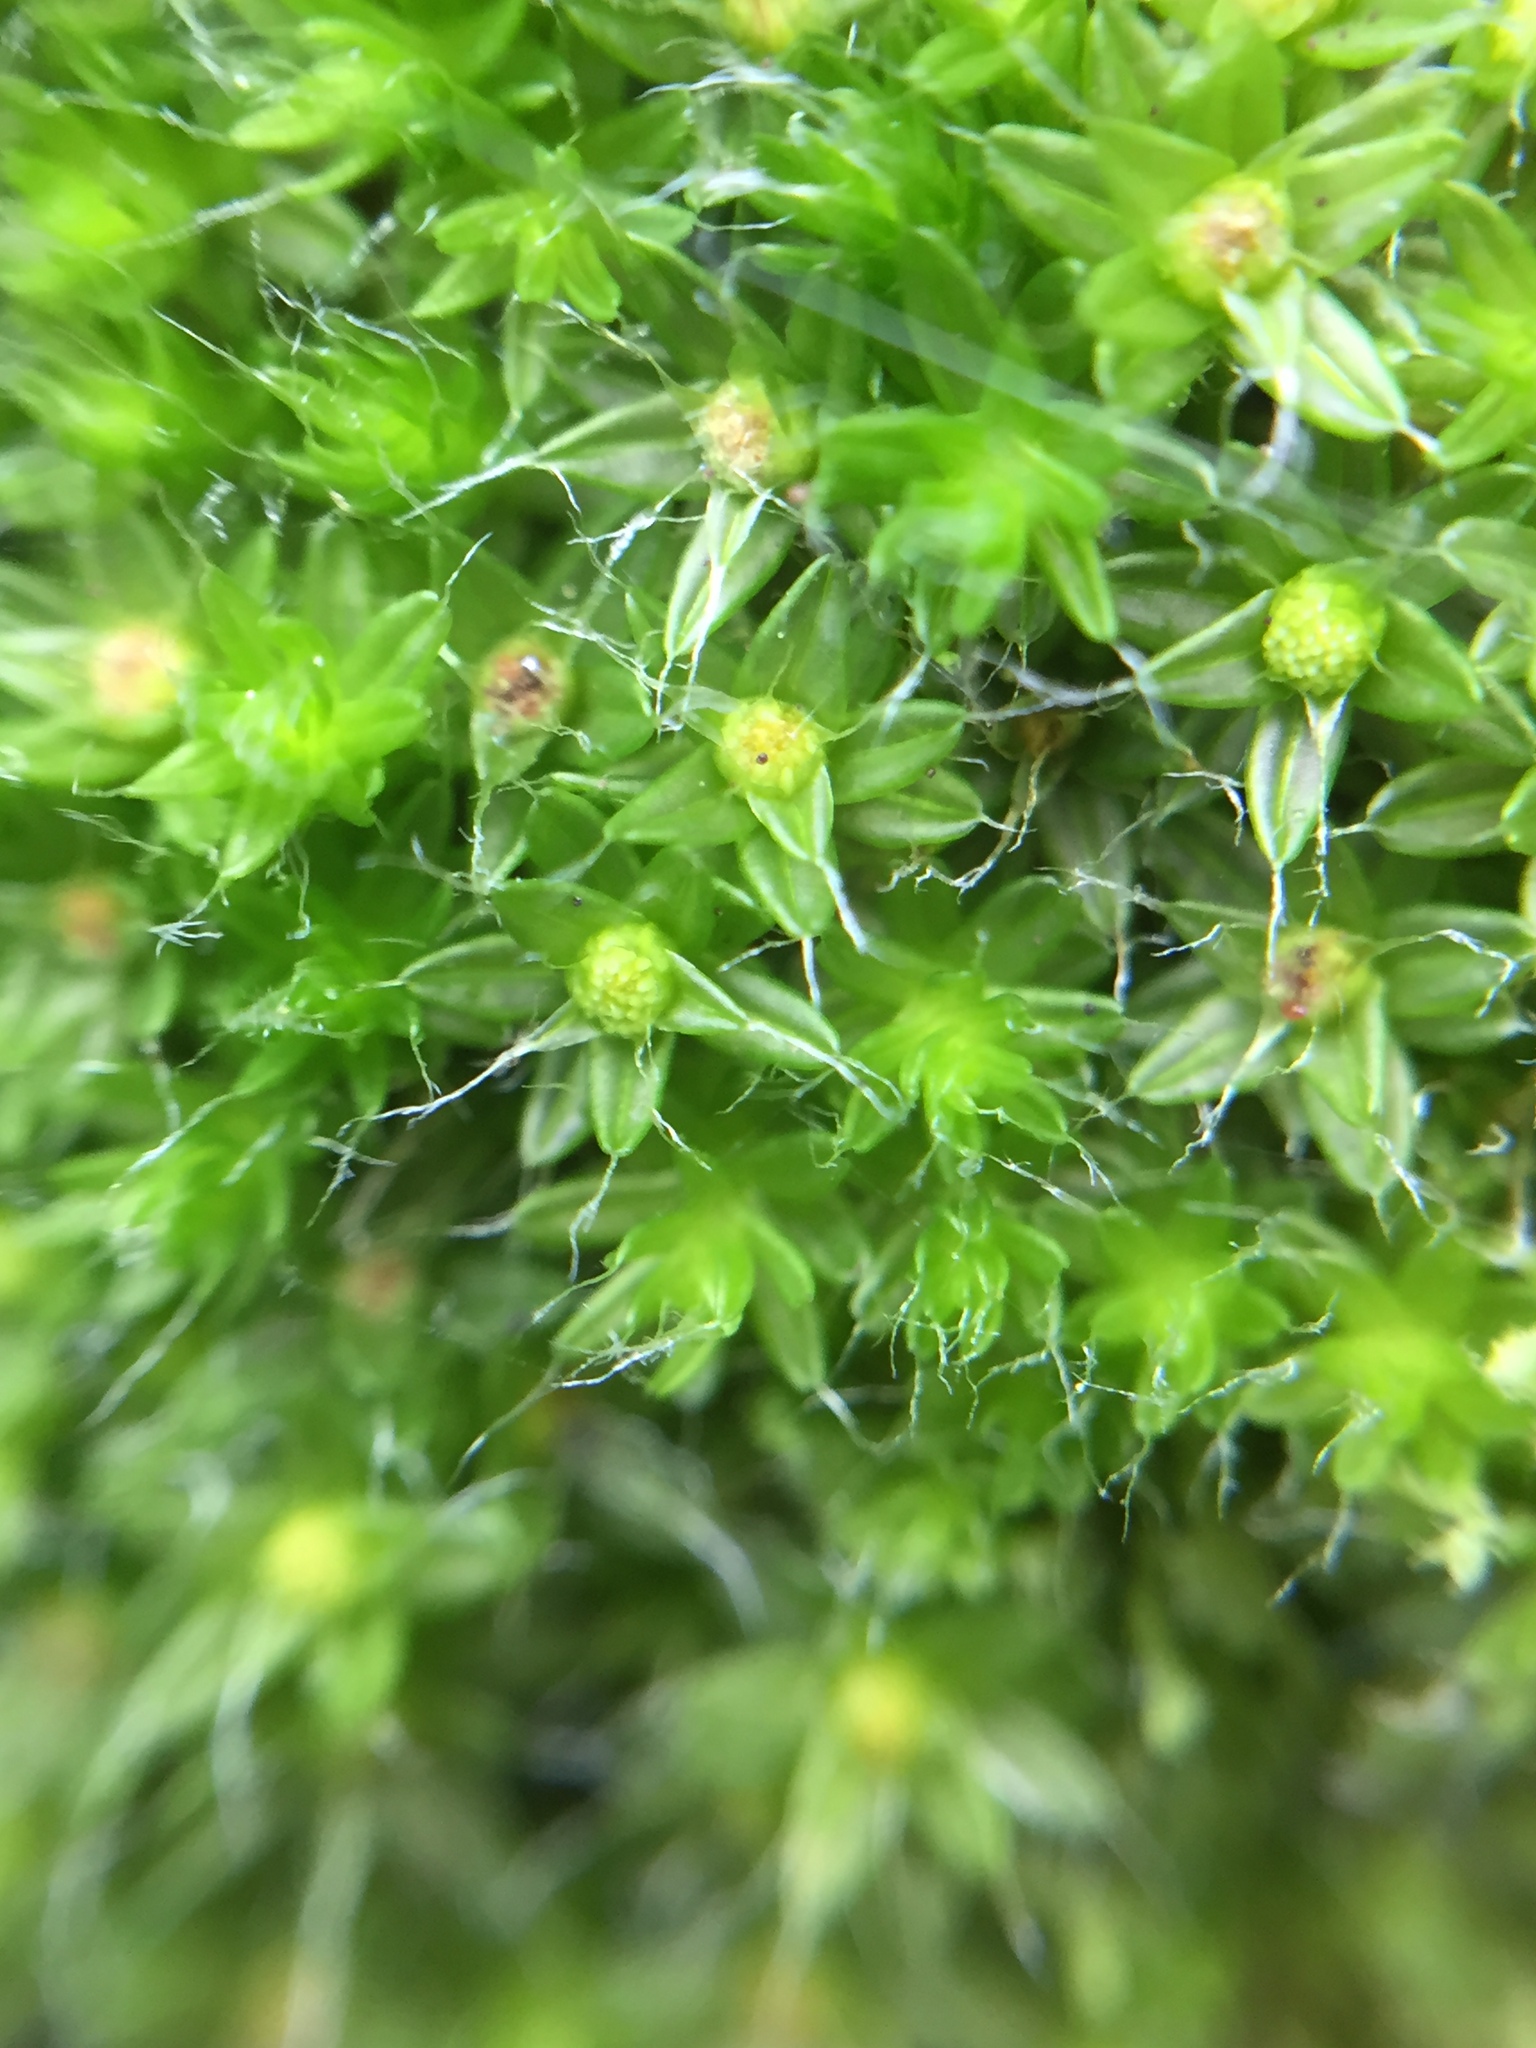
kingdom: Plantae
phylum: Bryophyta
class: Bryopsida
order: Bryales
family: Leptostomataceae
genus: Leptostomum
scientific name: Leptostomum macrocarpon
